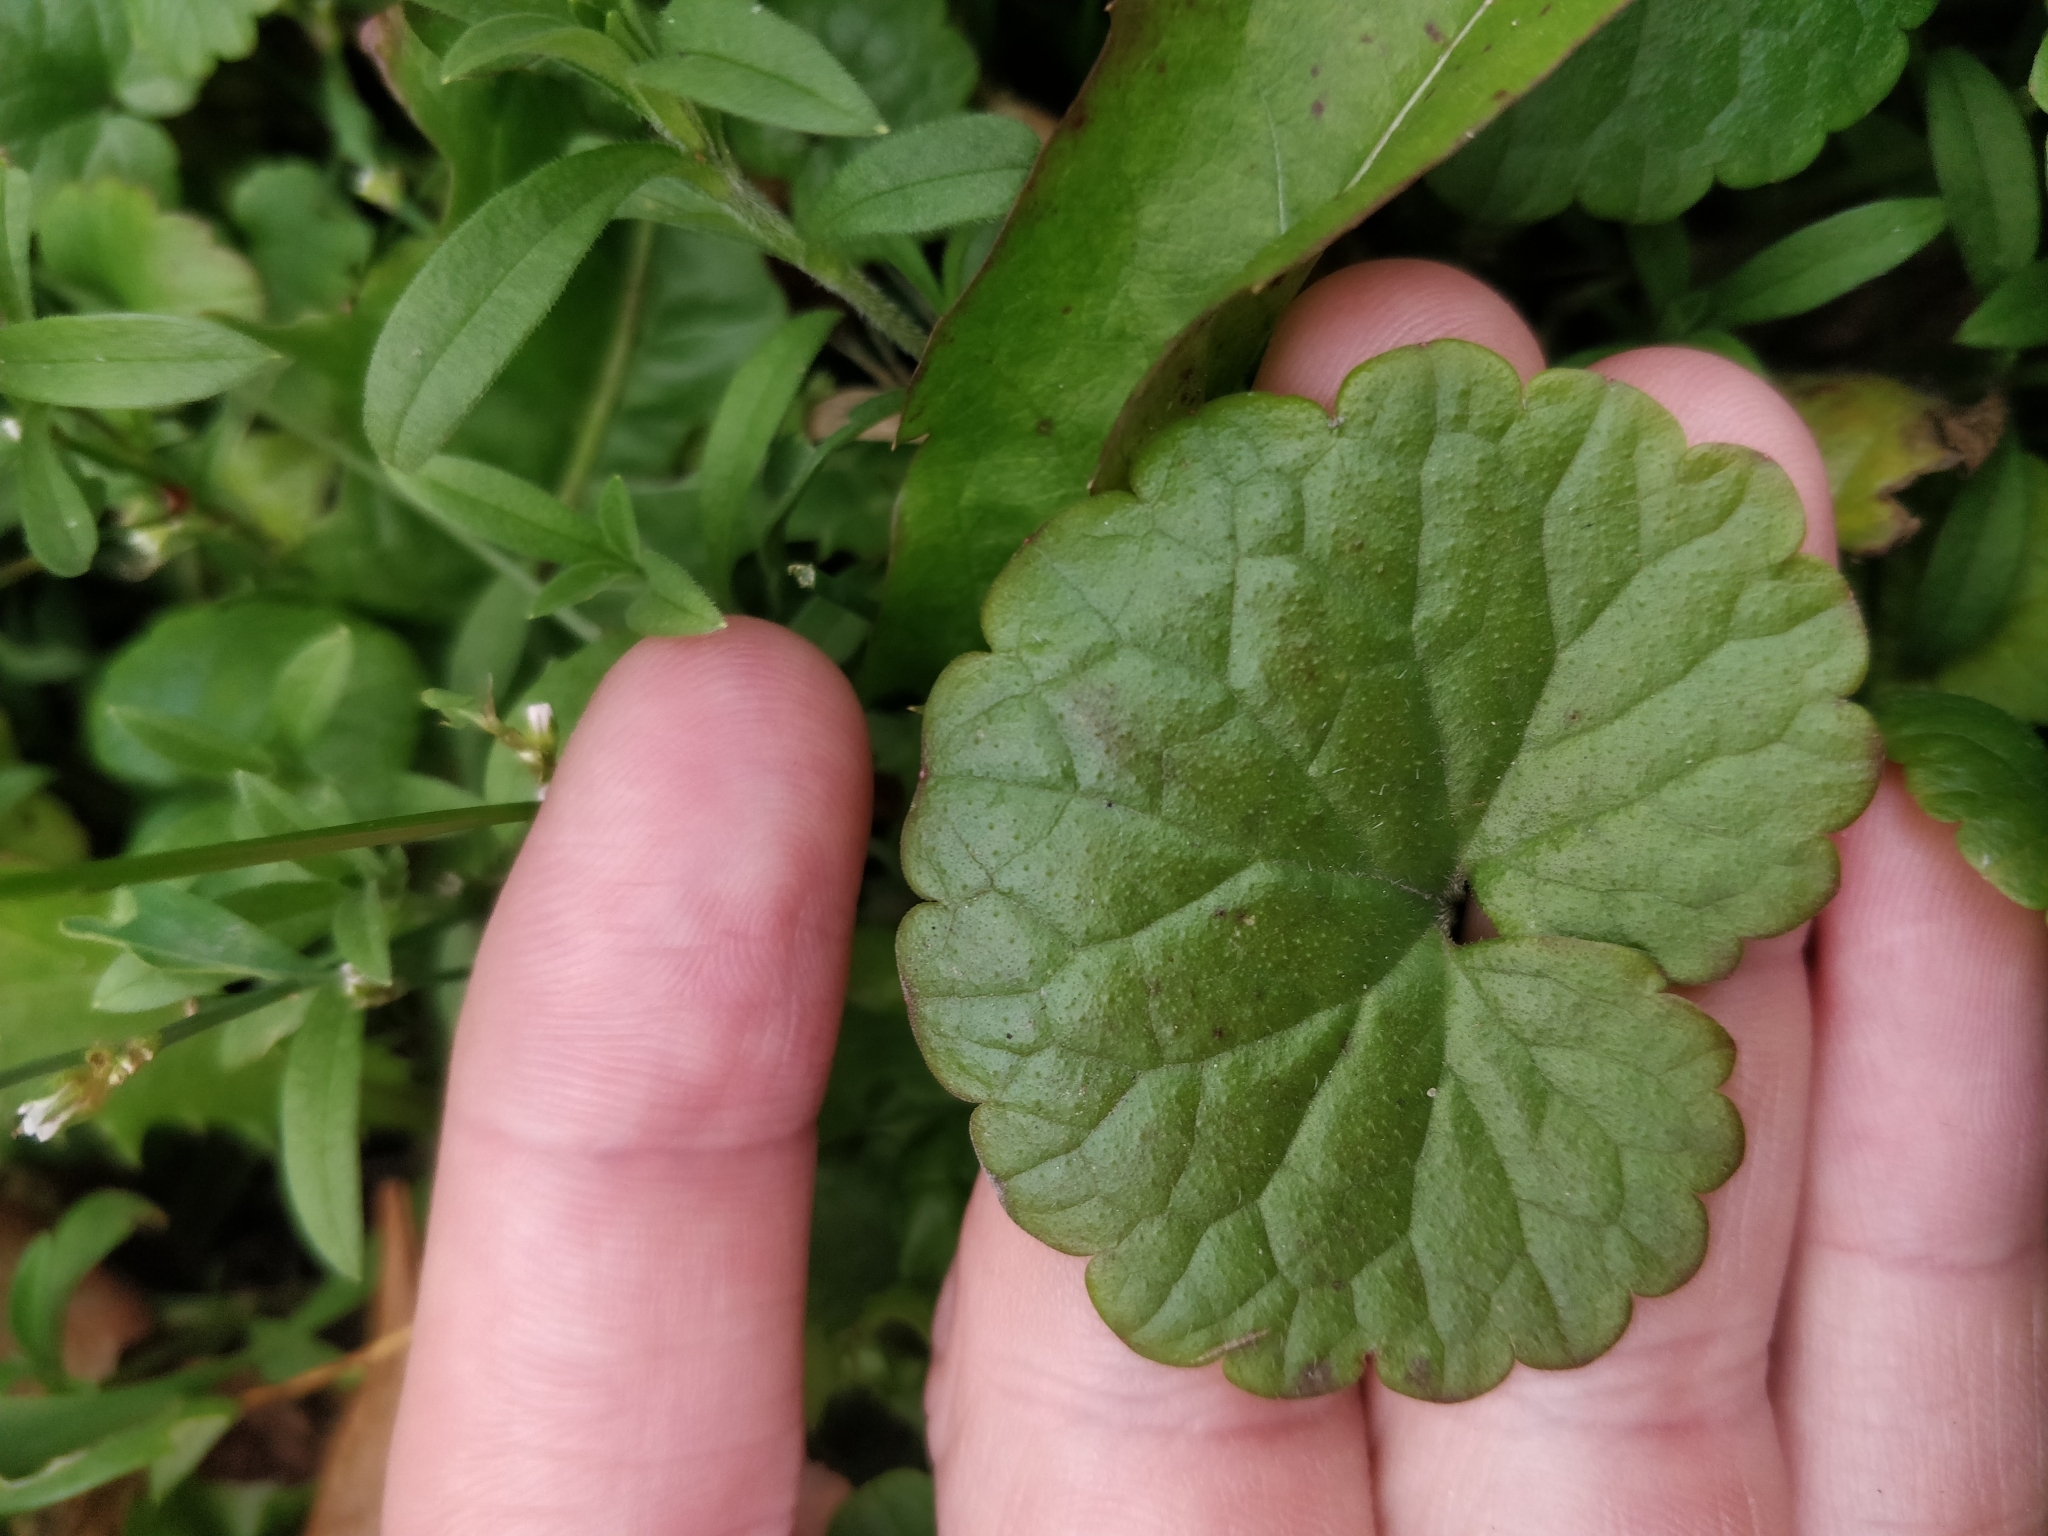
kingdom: Plantae
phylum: Tracheophyta
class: Magnoliopsida
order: Lamiales
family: Lamiaceae
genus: Glechoma
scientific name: Glechoma hederacea
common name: Ground ivy
